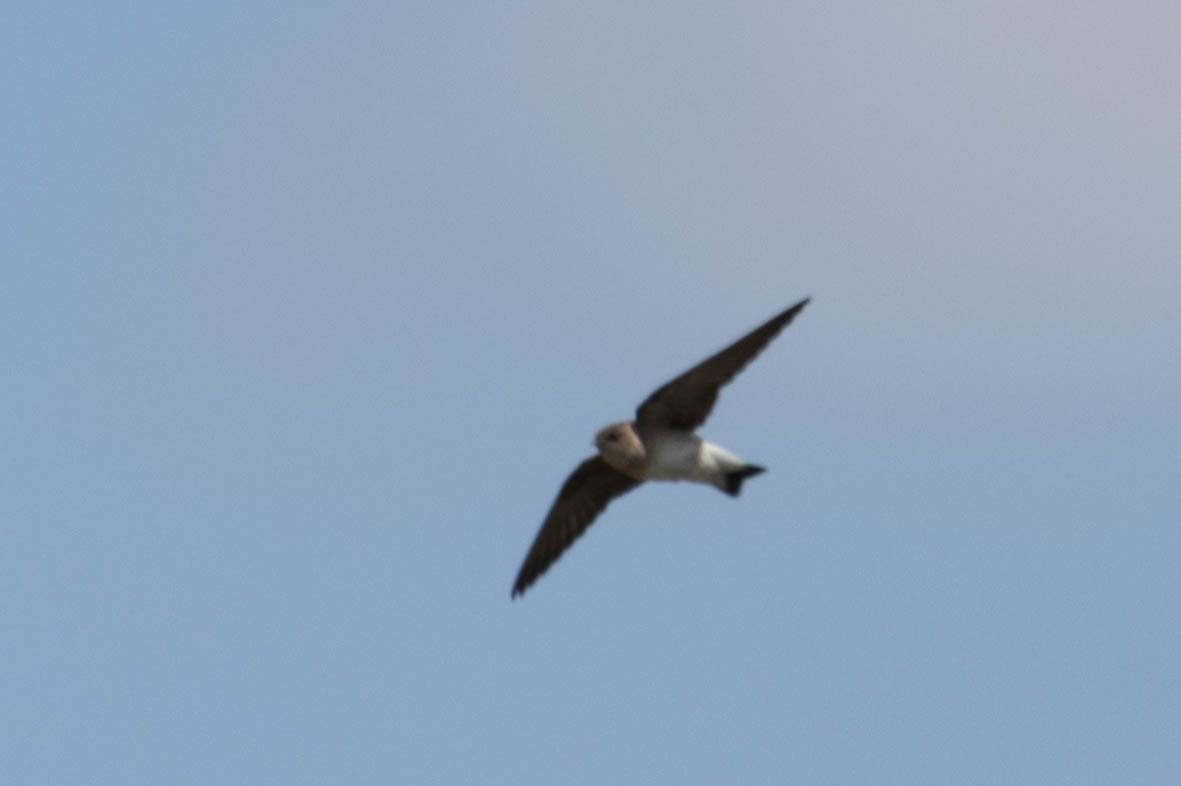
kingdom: Animalia
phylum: Chordata
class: Aves
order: Passeriformes
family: Hirundinidae
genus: Stelgidopteryx
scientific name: Stelgidopteryx serripennis
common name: Northern rough-winged swallow
